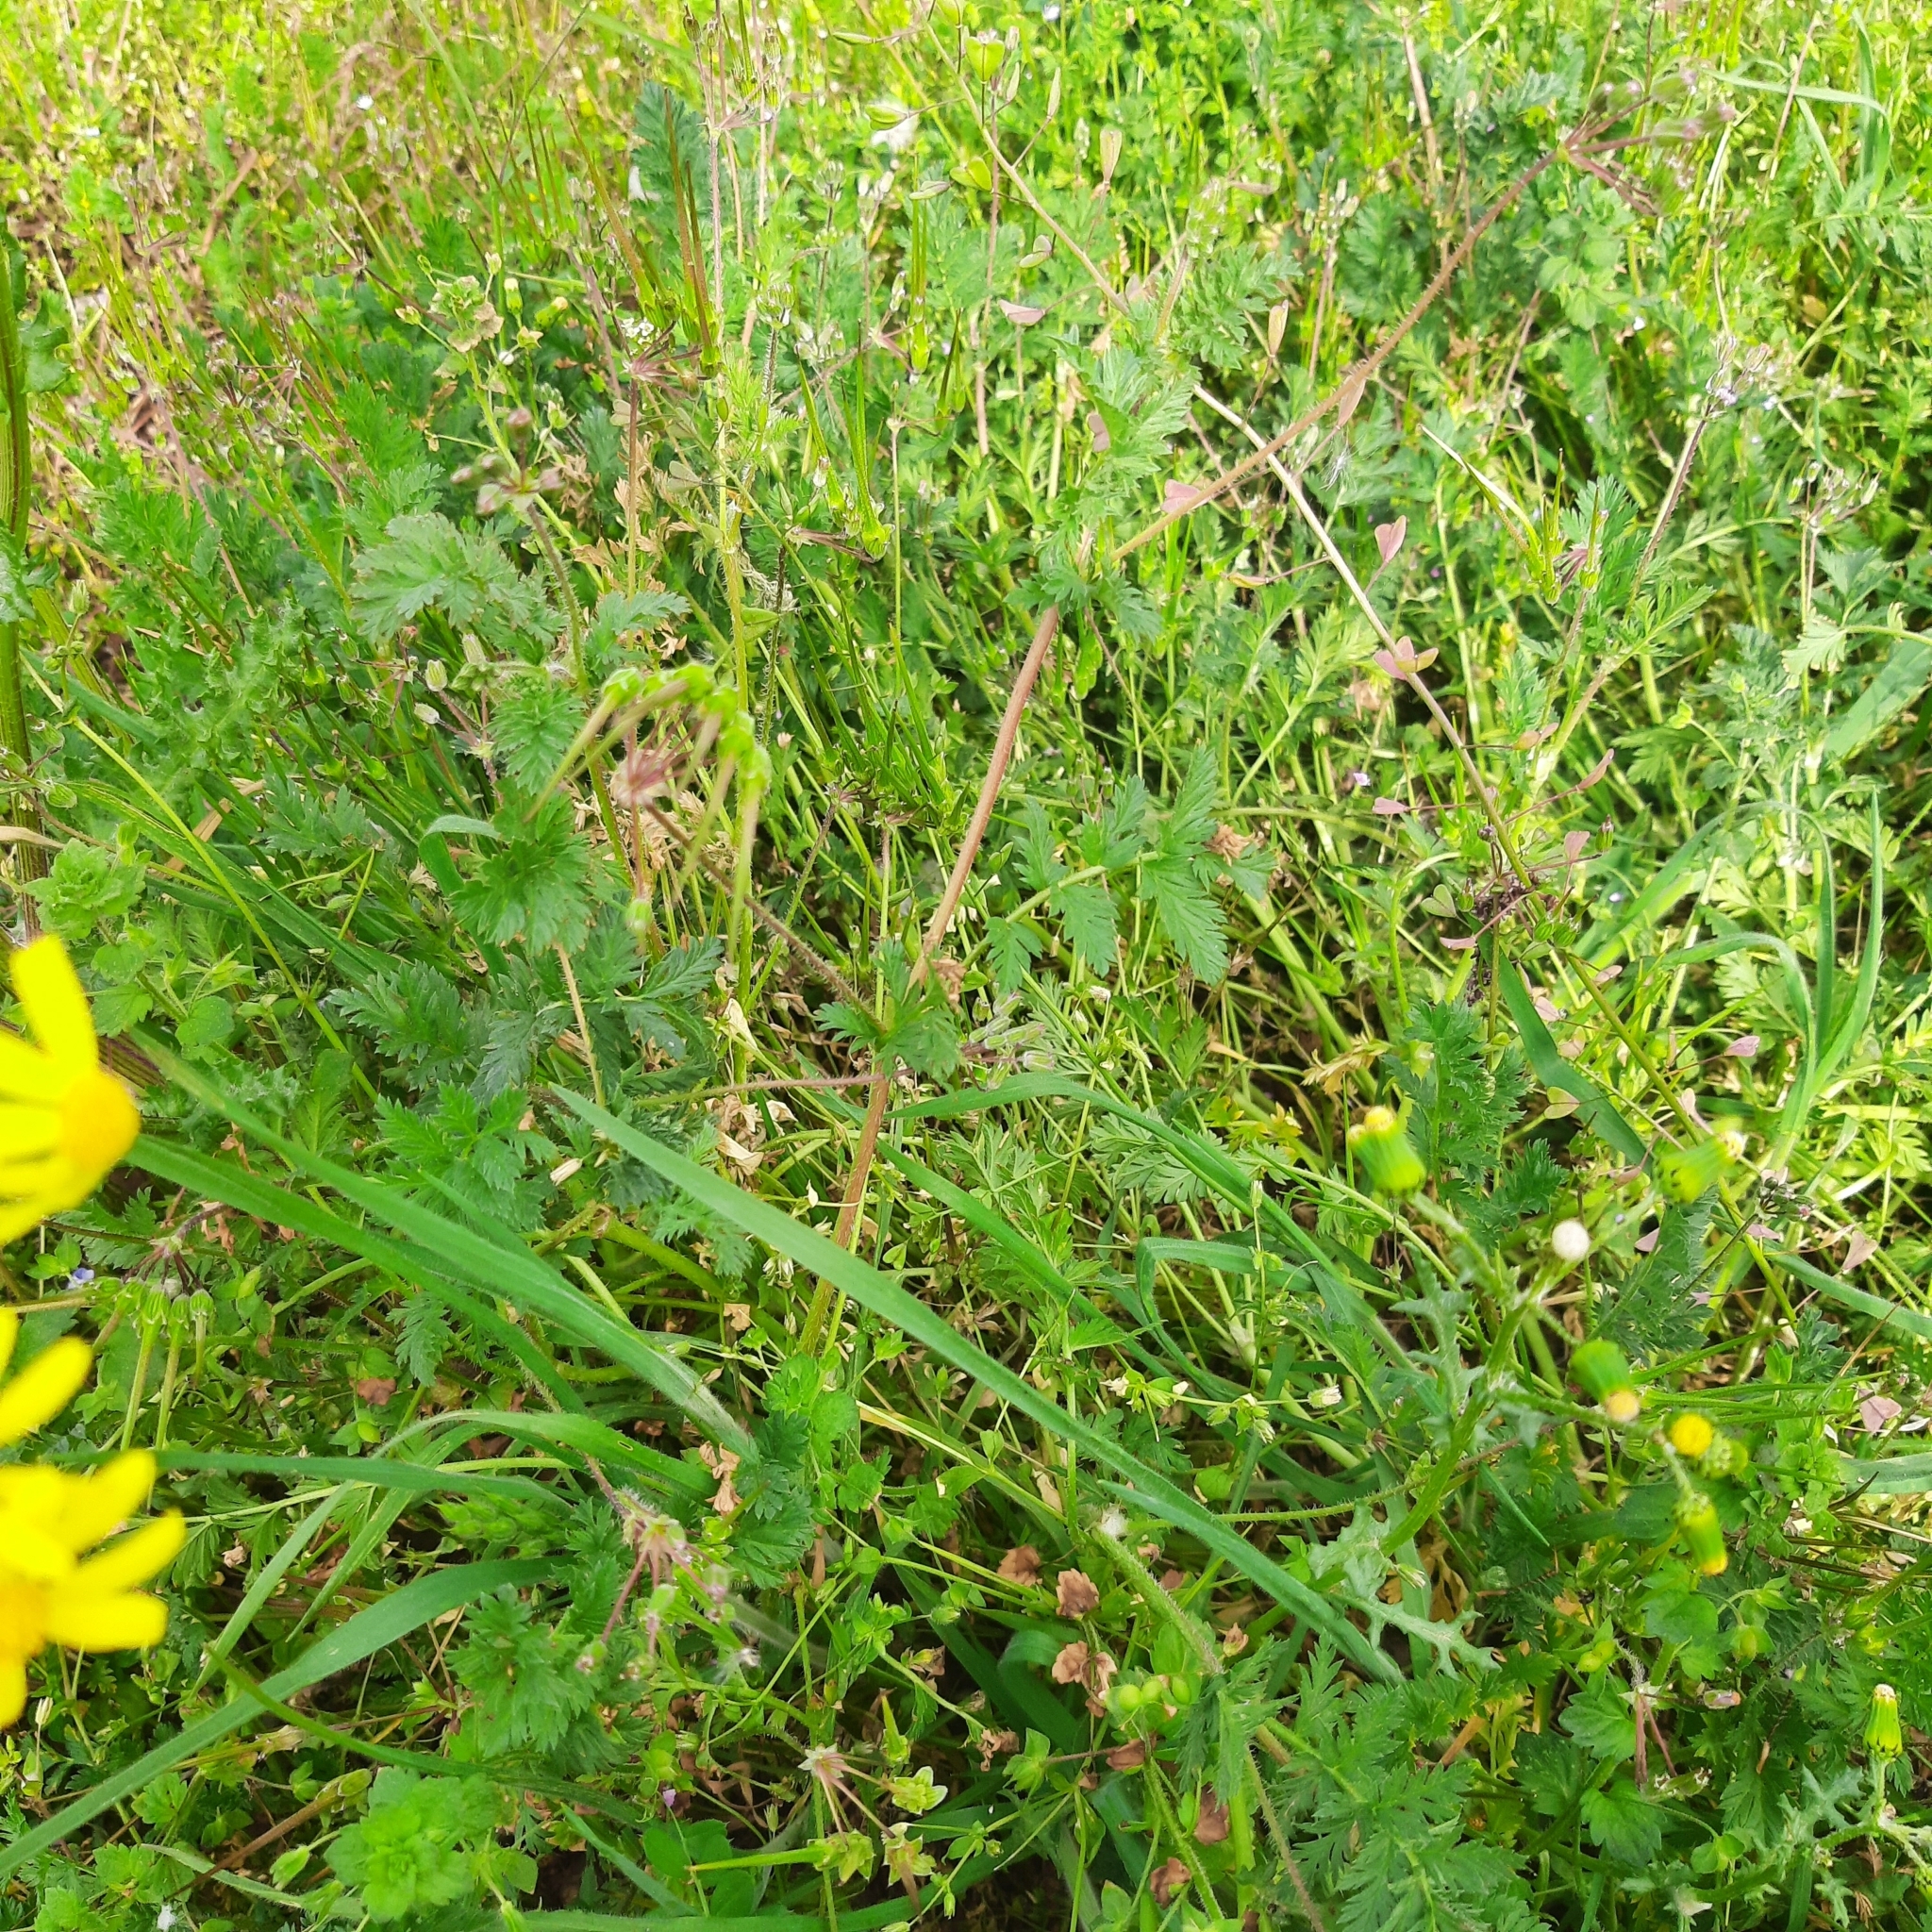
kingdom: Plantae
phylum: Tracheophyta
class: Magnoliopsida
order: Geraniales
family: Geraniaceae
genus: Erodium
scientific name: Erodium cicutarium
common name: Common stork's-bill
